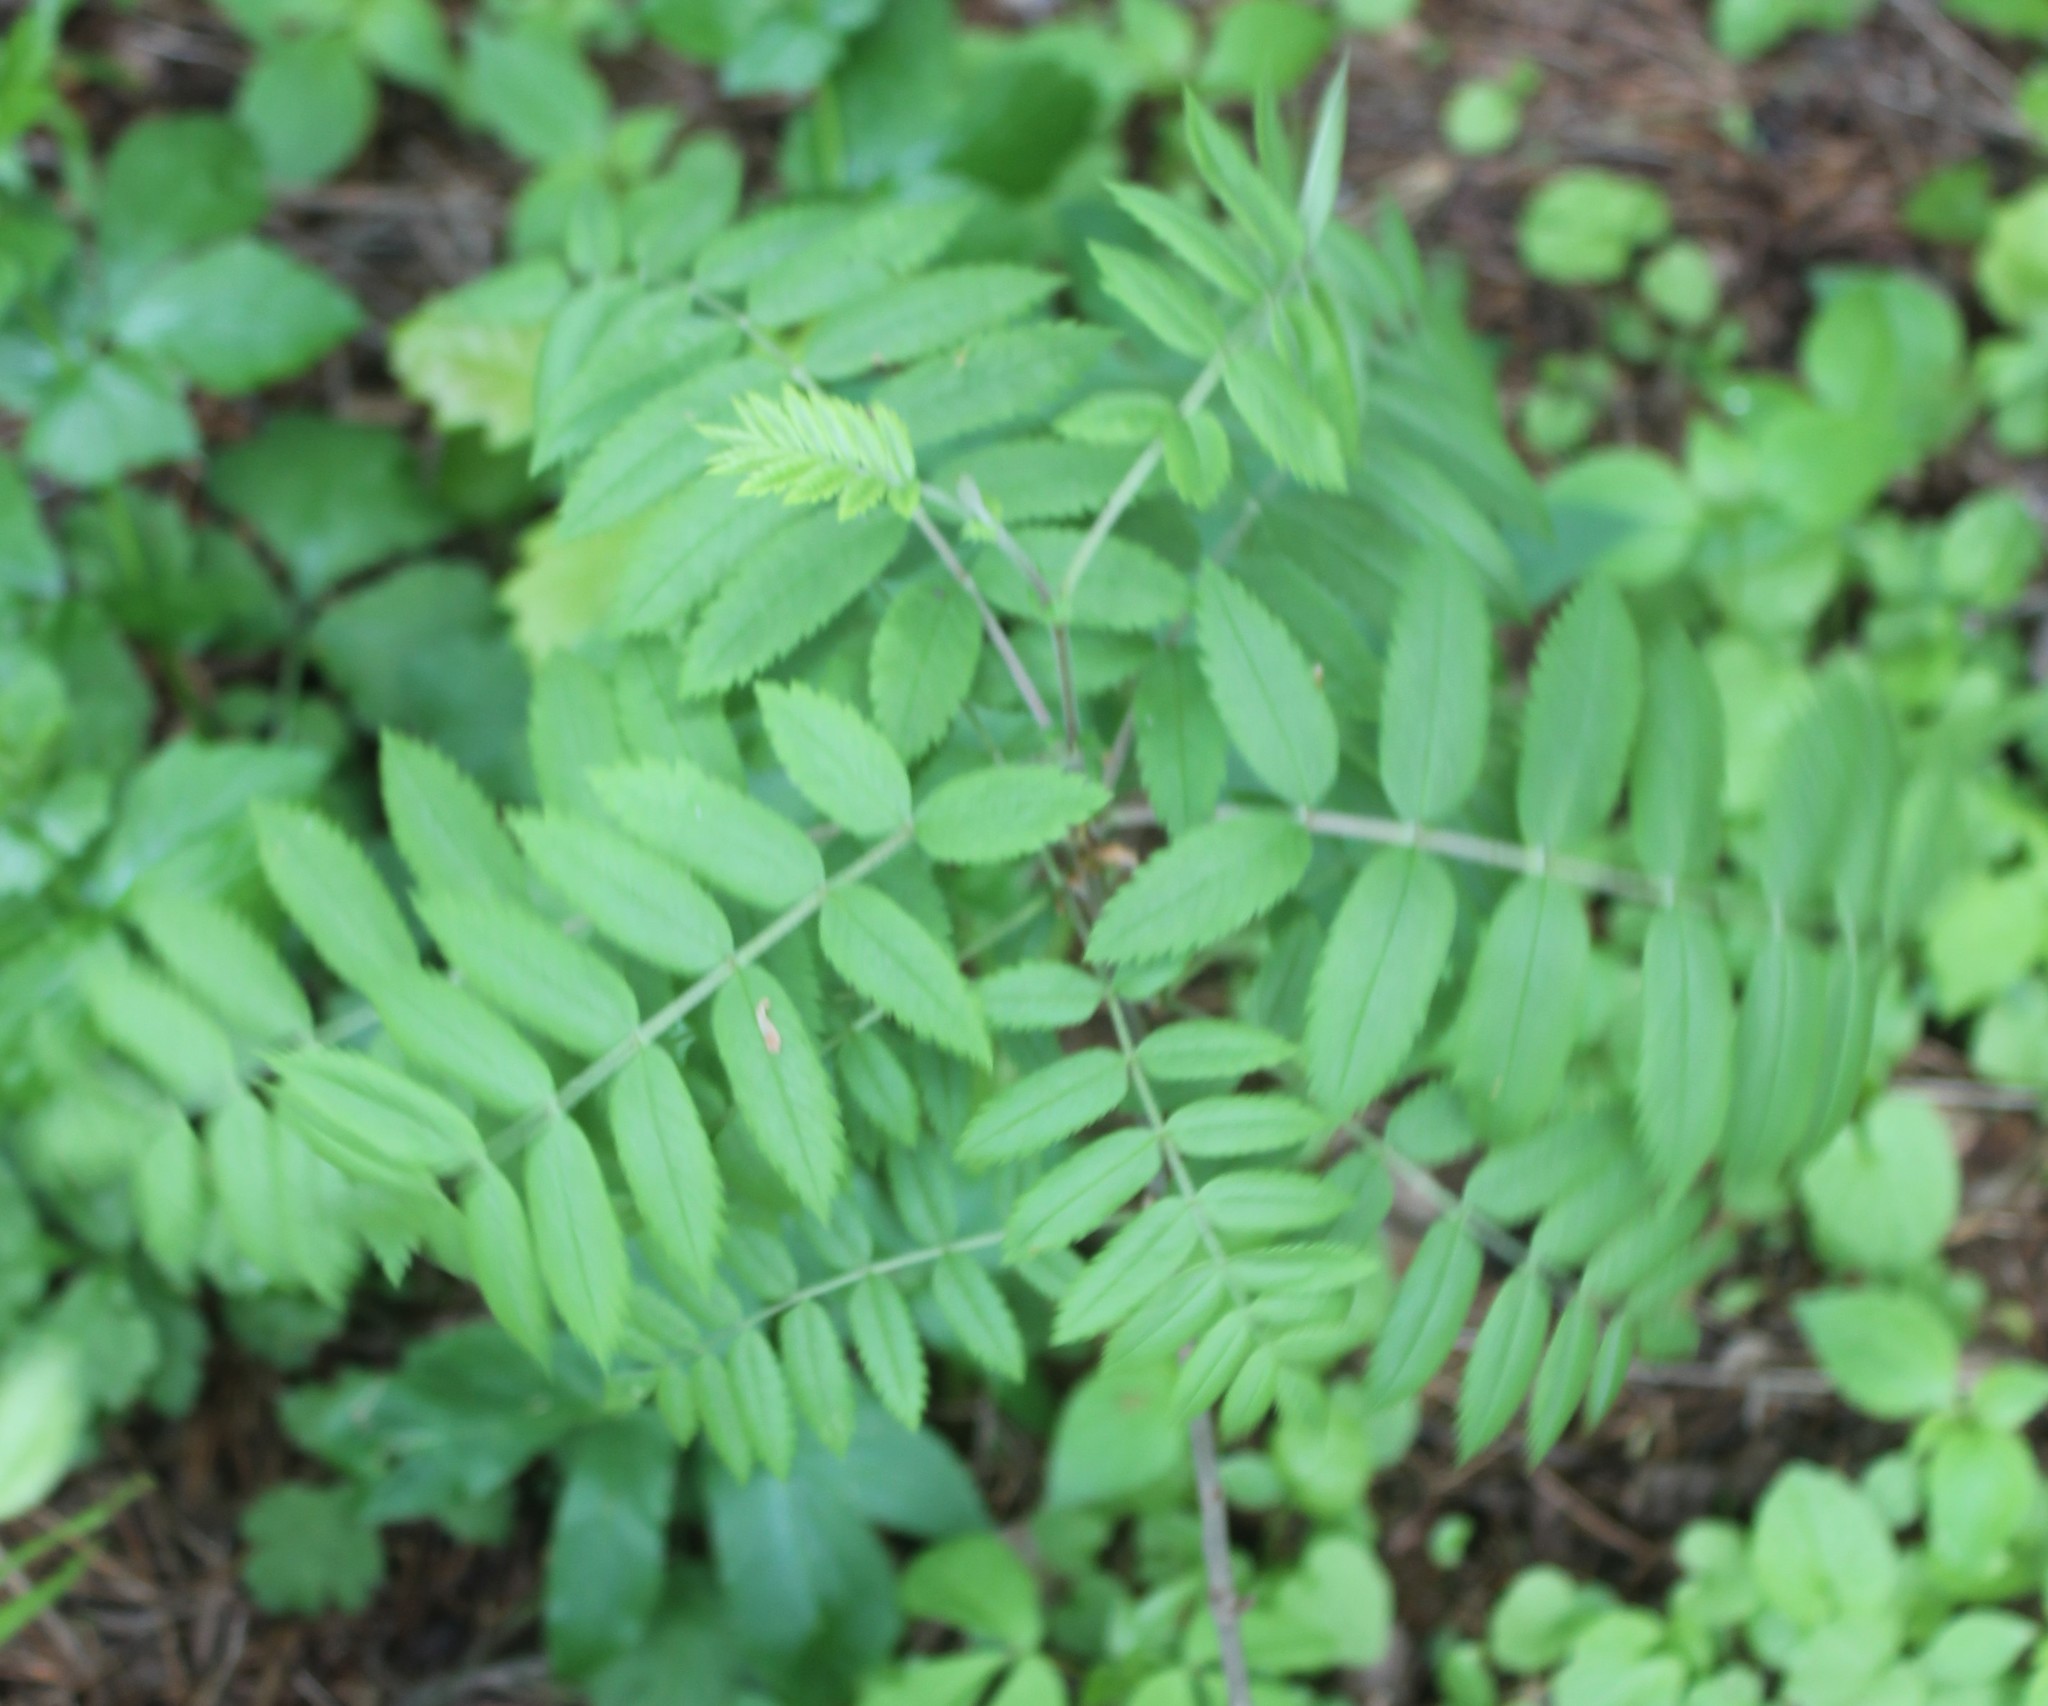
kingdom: Plantae
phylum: Tracheophyta
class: Magnoliopsida
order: Rosales
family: Rosaceae
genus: Sorbus
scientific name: Sorbus aucuparia
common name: Rowan
